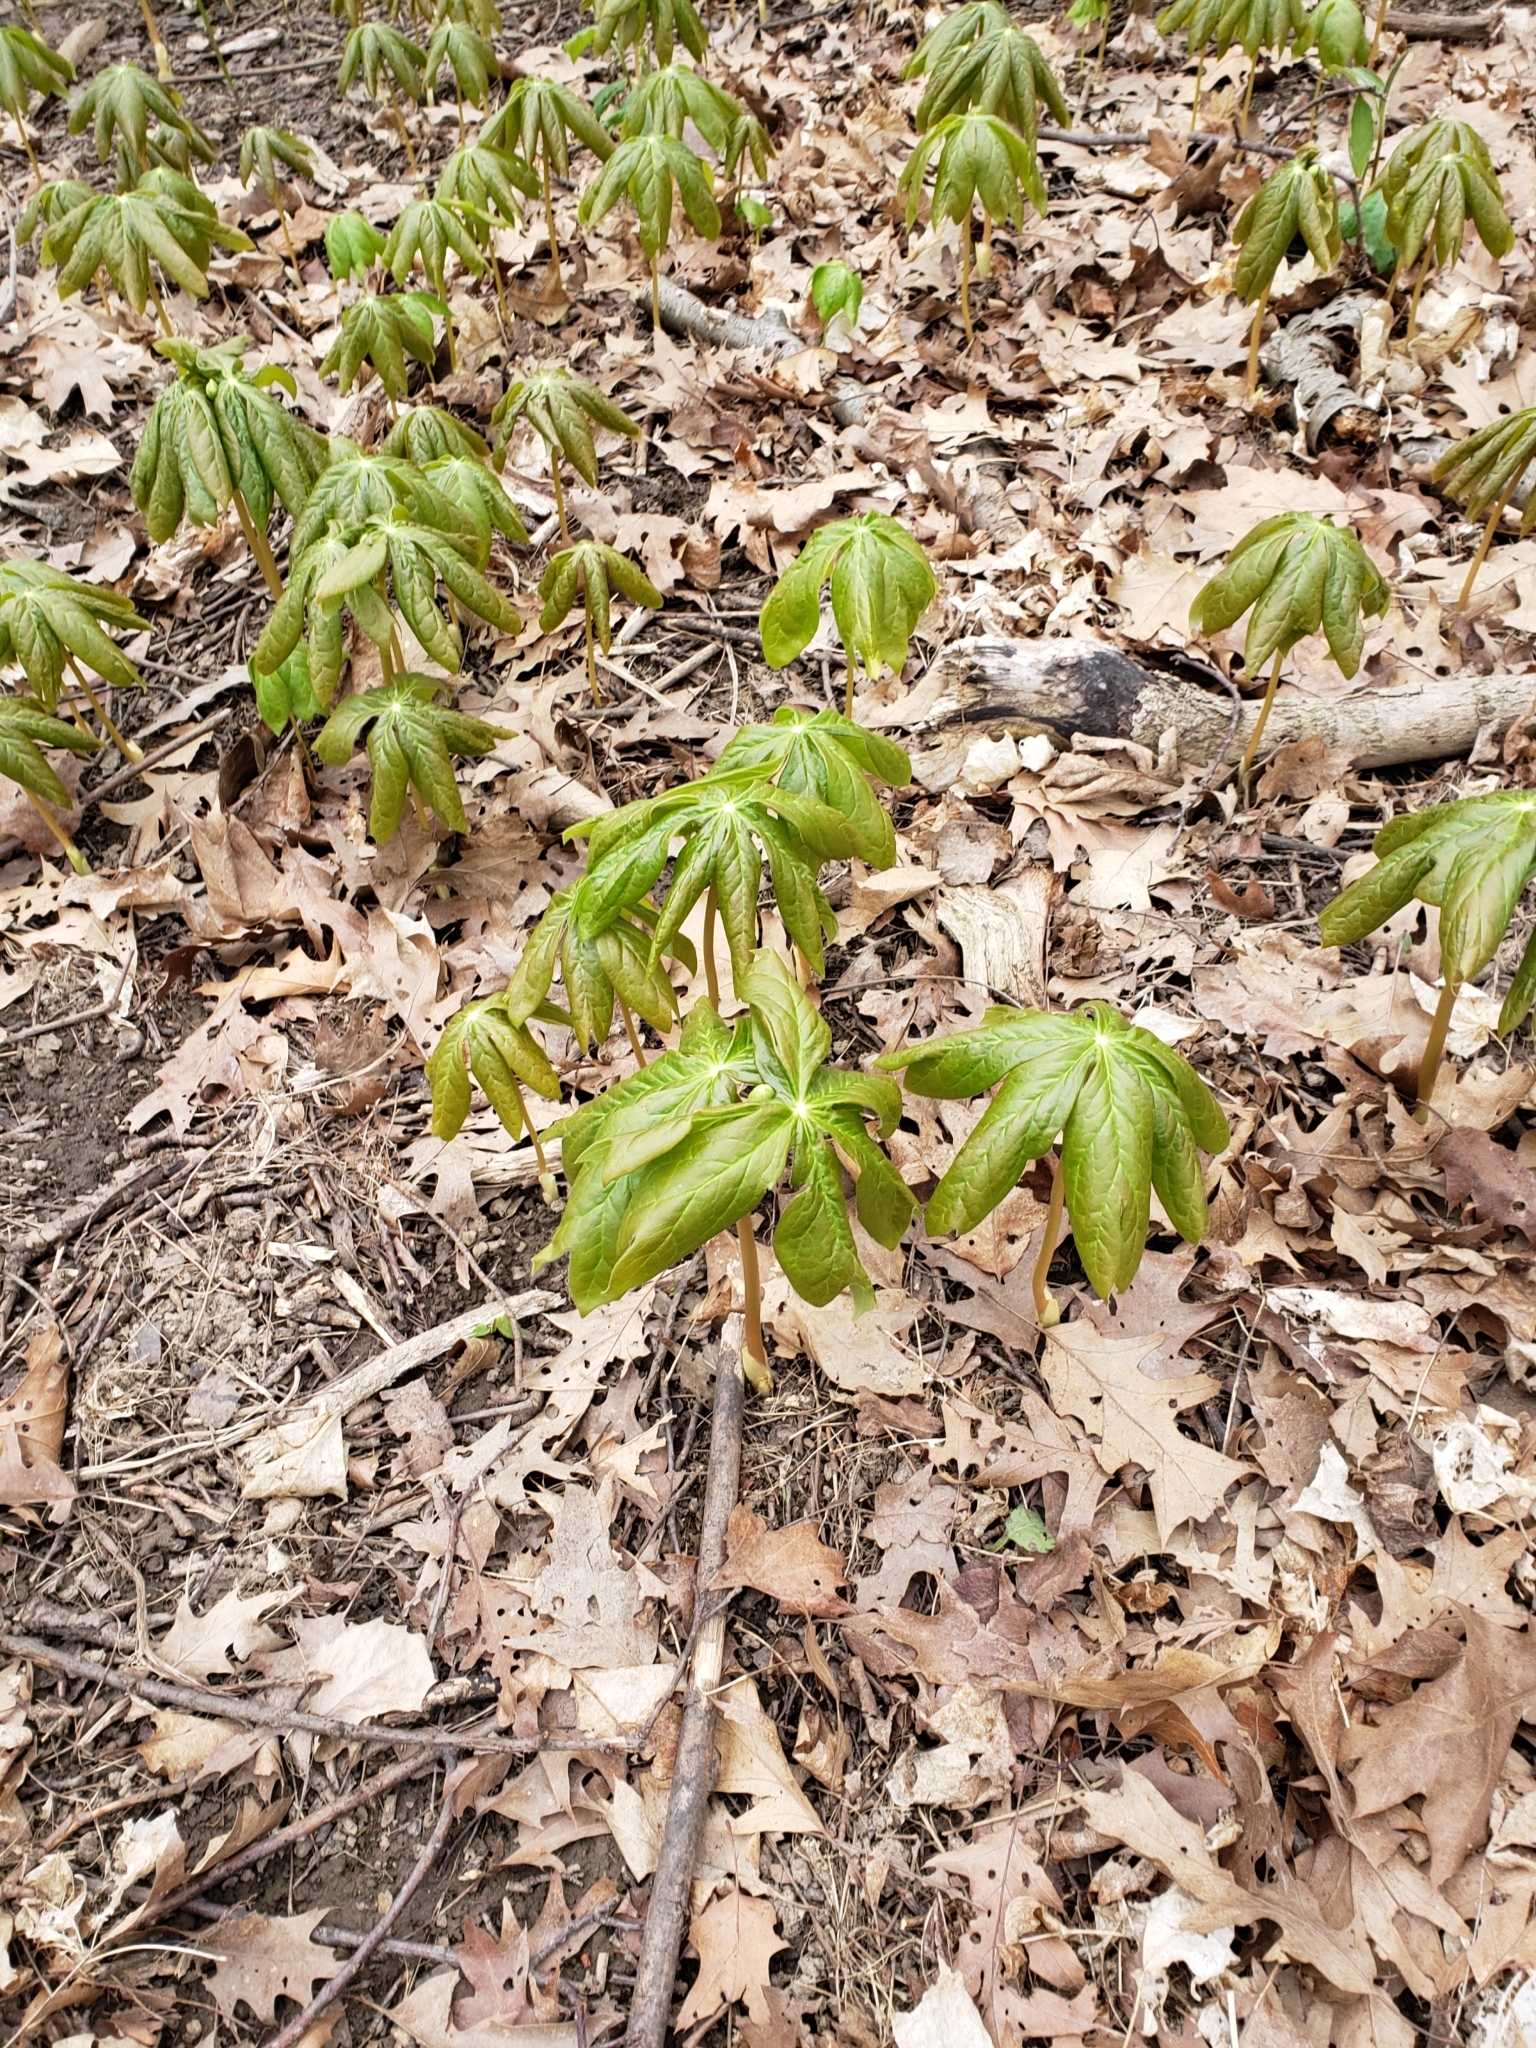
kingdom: Plantae
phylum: Tracheophyta
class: Magnoliopsida
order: Ranunculales
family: Berberidaceae
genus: Podophyllum
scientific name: Podophyllum peltatum
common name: Wild mandrake
